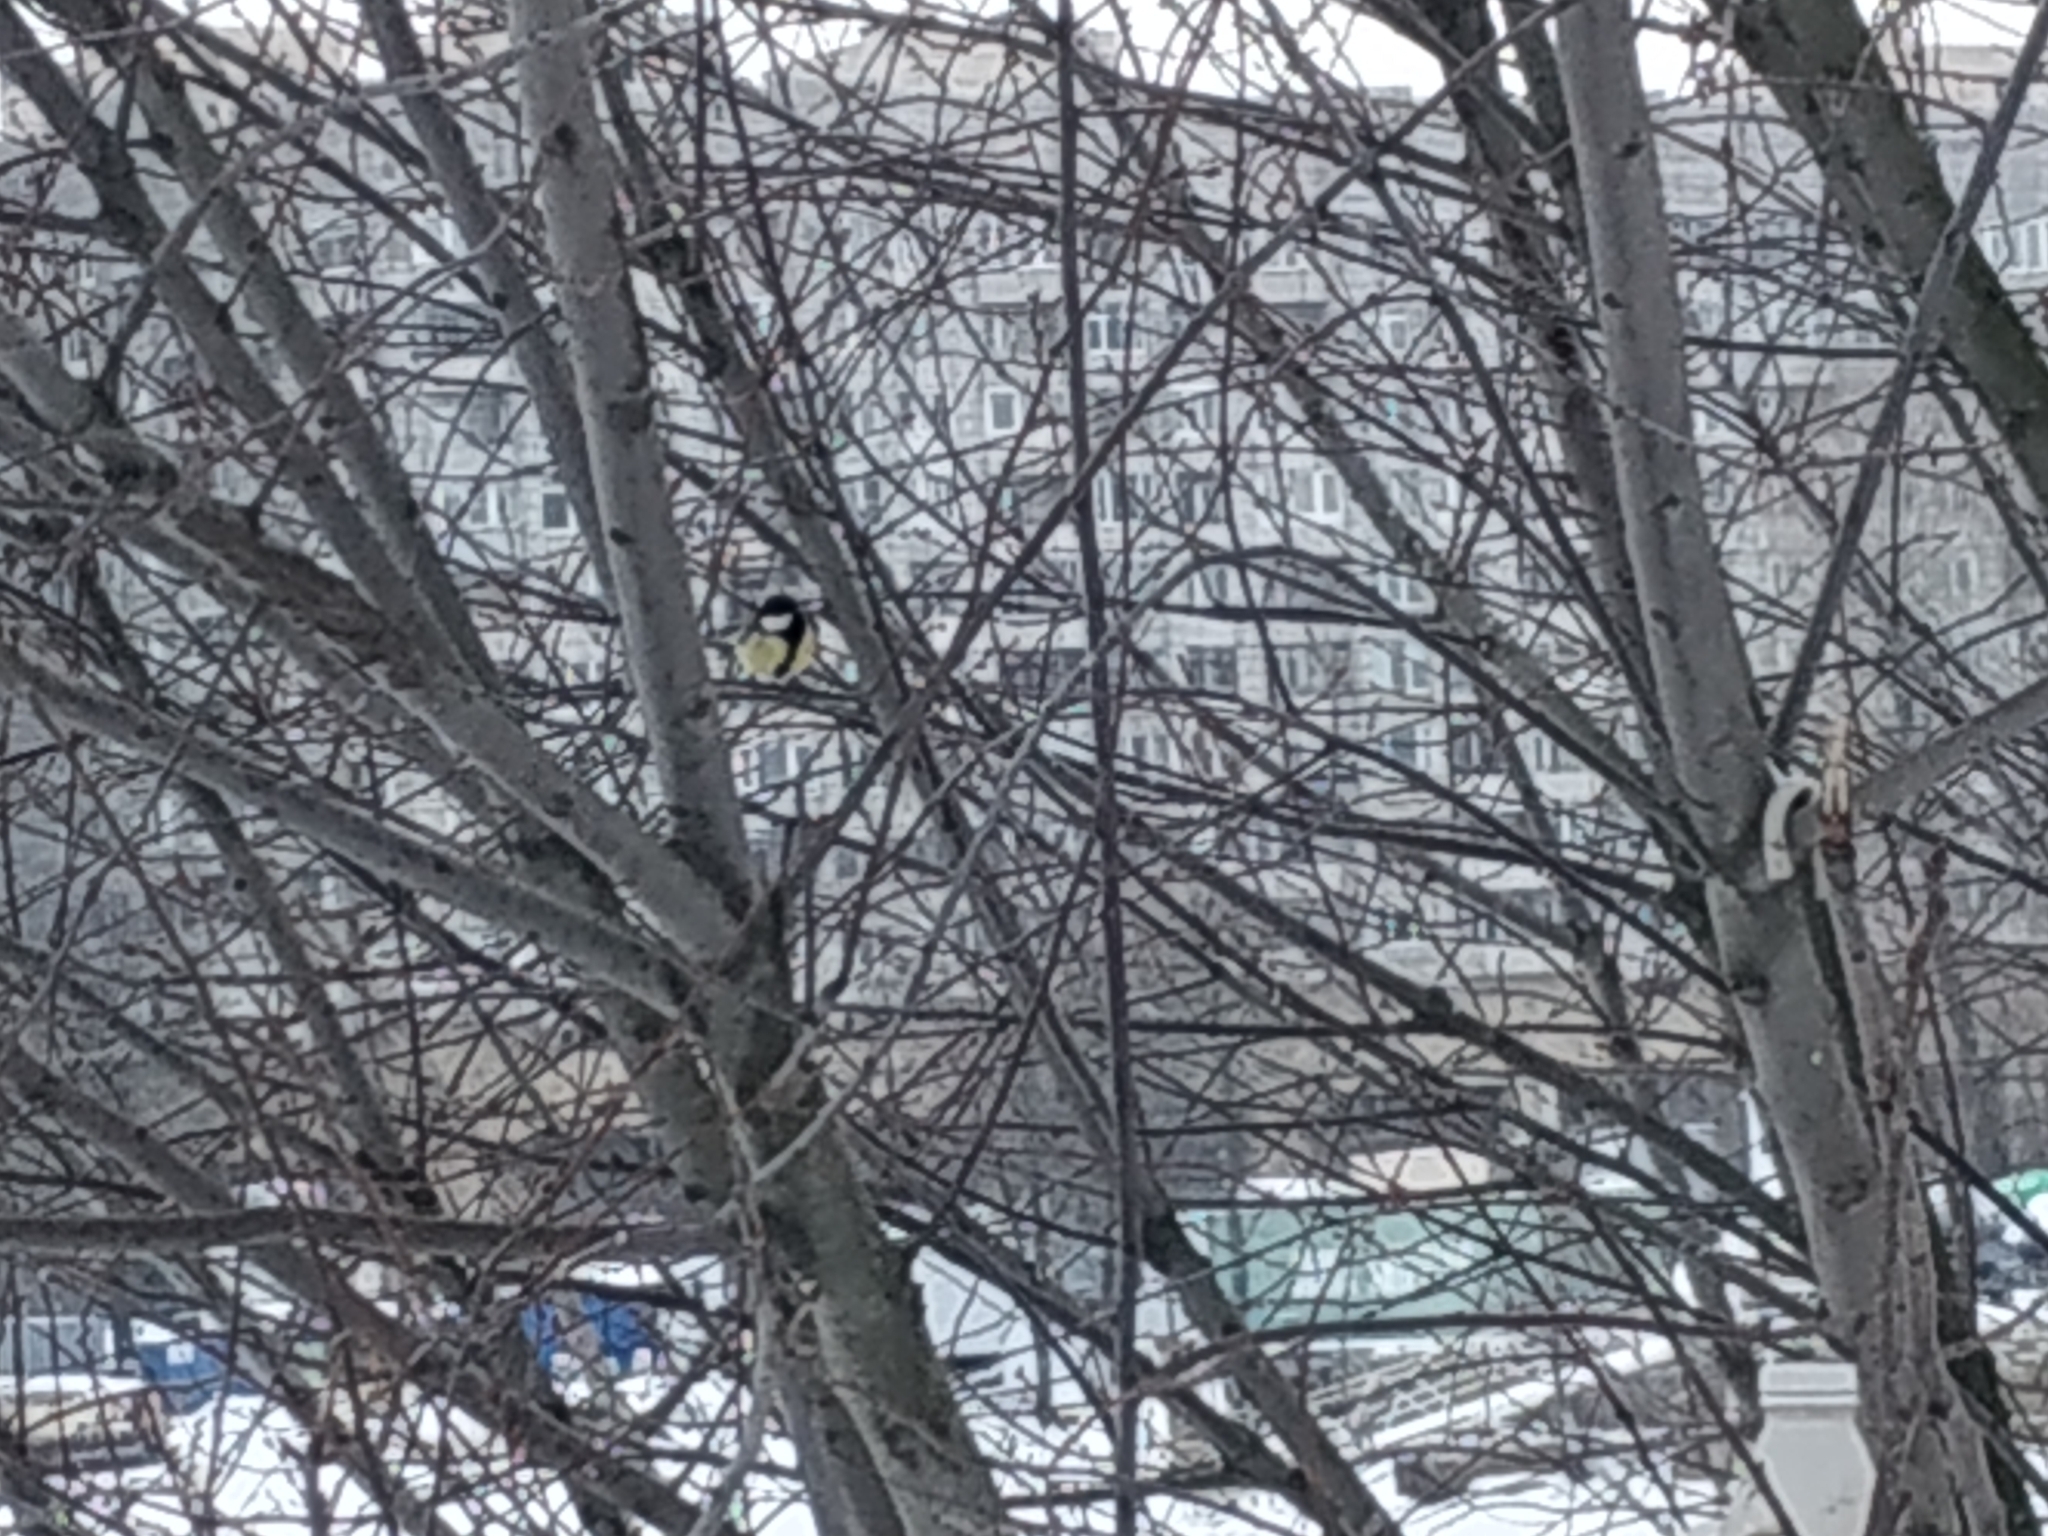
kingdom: Animalia
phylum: Chordata
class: Aves
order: Passeriformes
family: Paridae
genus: Parus
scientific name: Parus major
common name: Great tit
